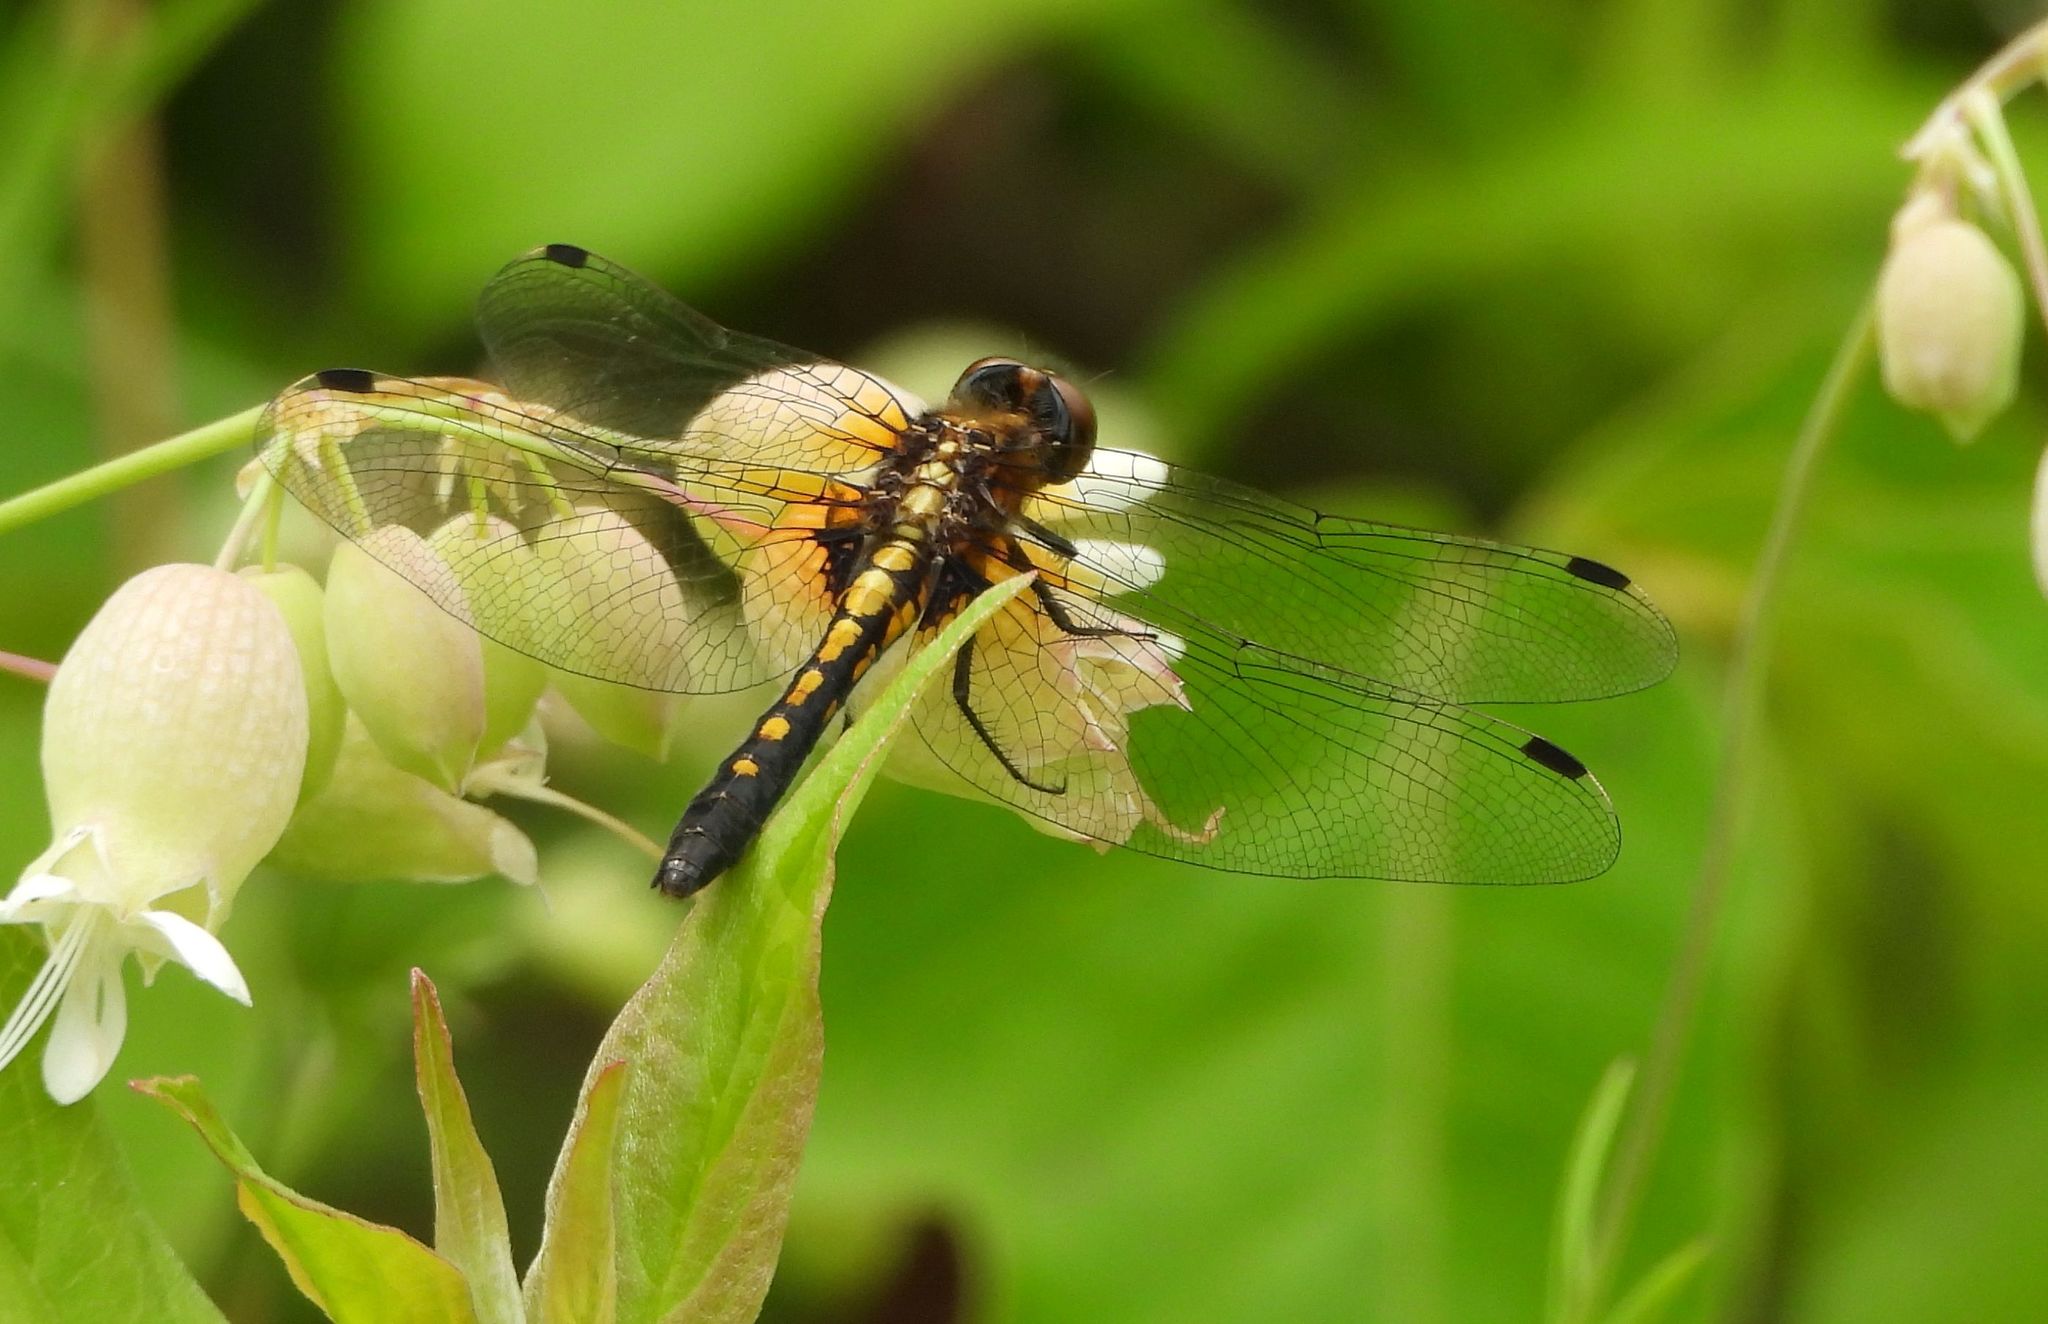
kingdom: Animalia
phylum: Arthropoda
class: Insecta
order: Odonata
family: Libellulidae
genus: Leucorrhinia
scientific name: Leucorrhinia intacta
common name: Dot-tailed whiteface
